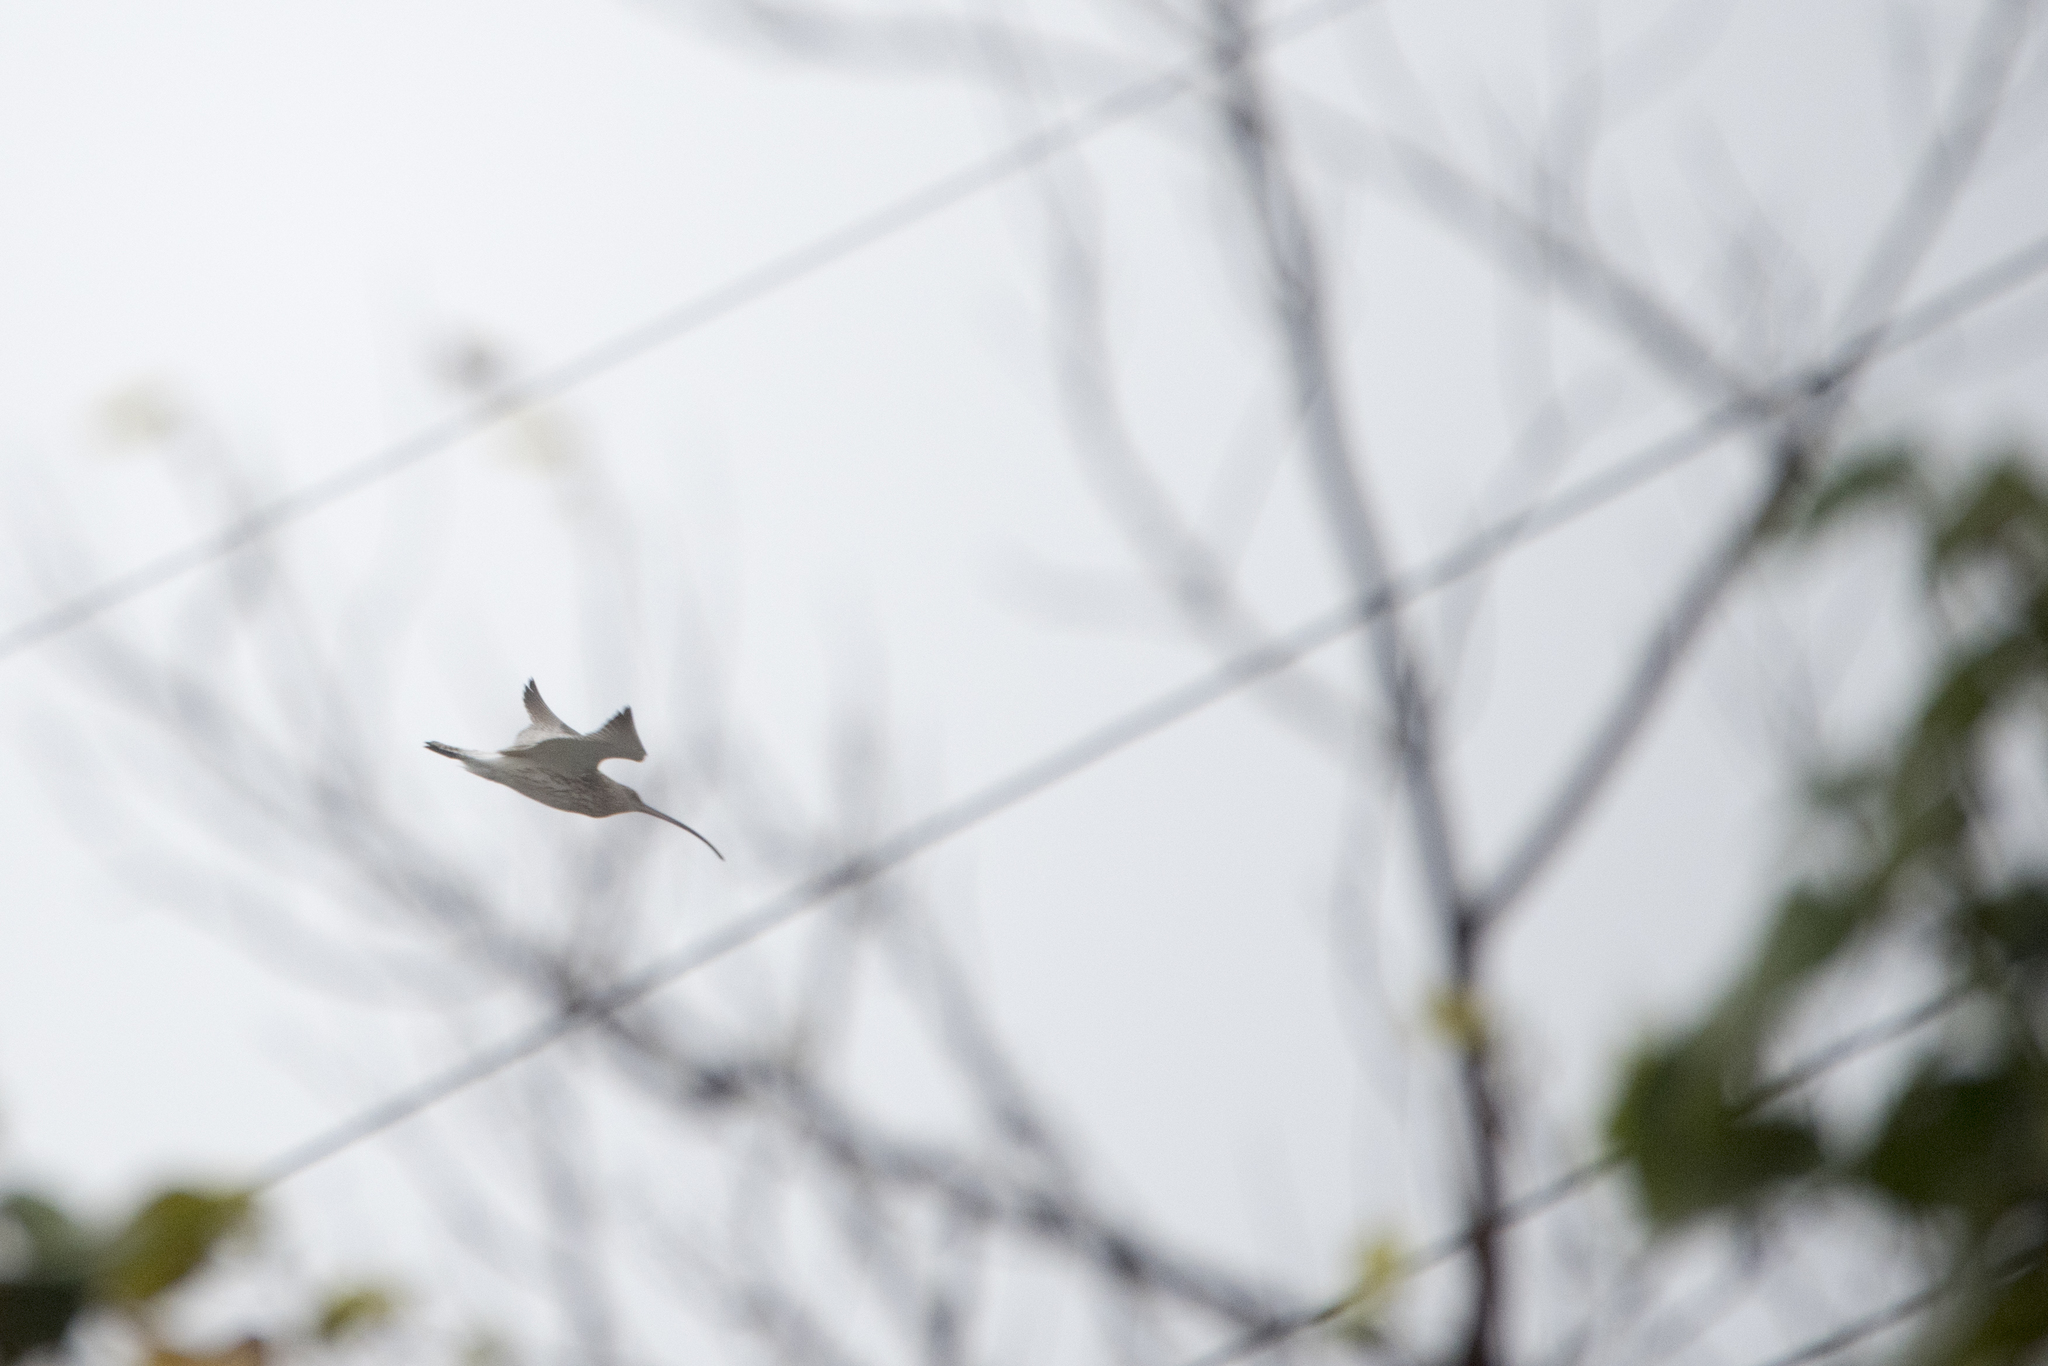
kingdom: Animalia
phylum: Chordata
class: Aves
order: Charadriiformes
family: Scolopacidae
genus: Numenius
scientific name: Numenius arquata
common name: Eurasian curlew
